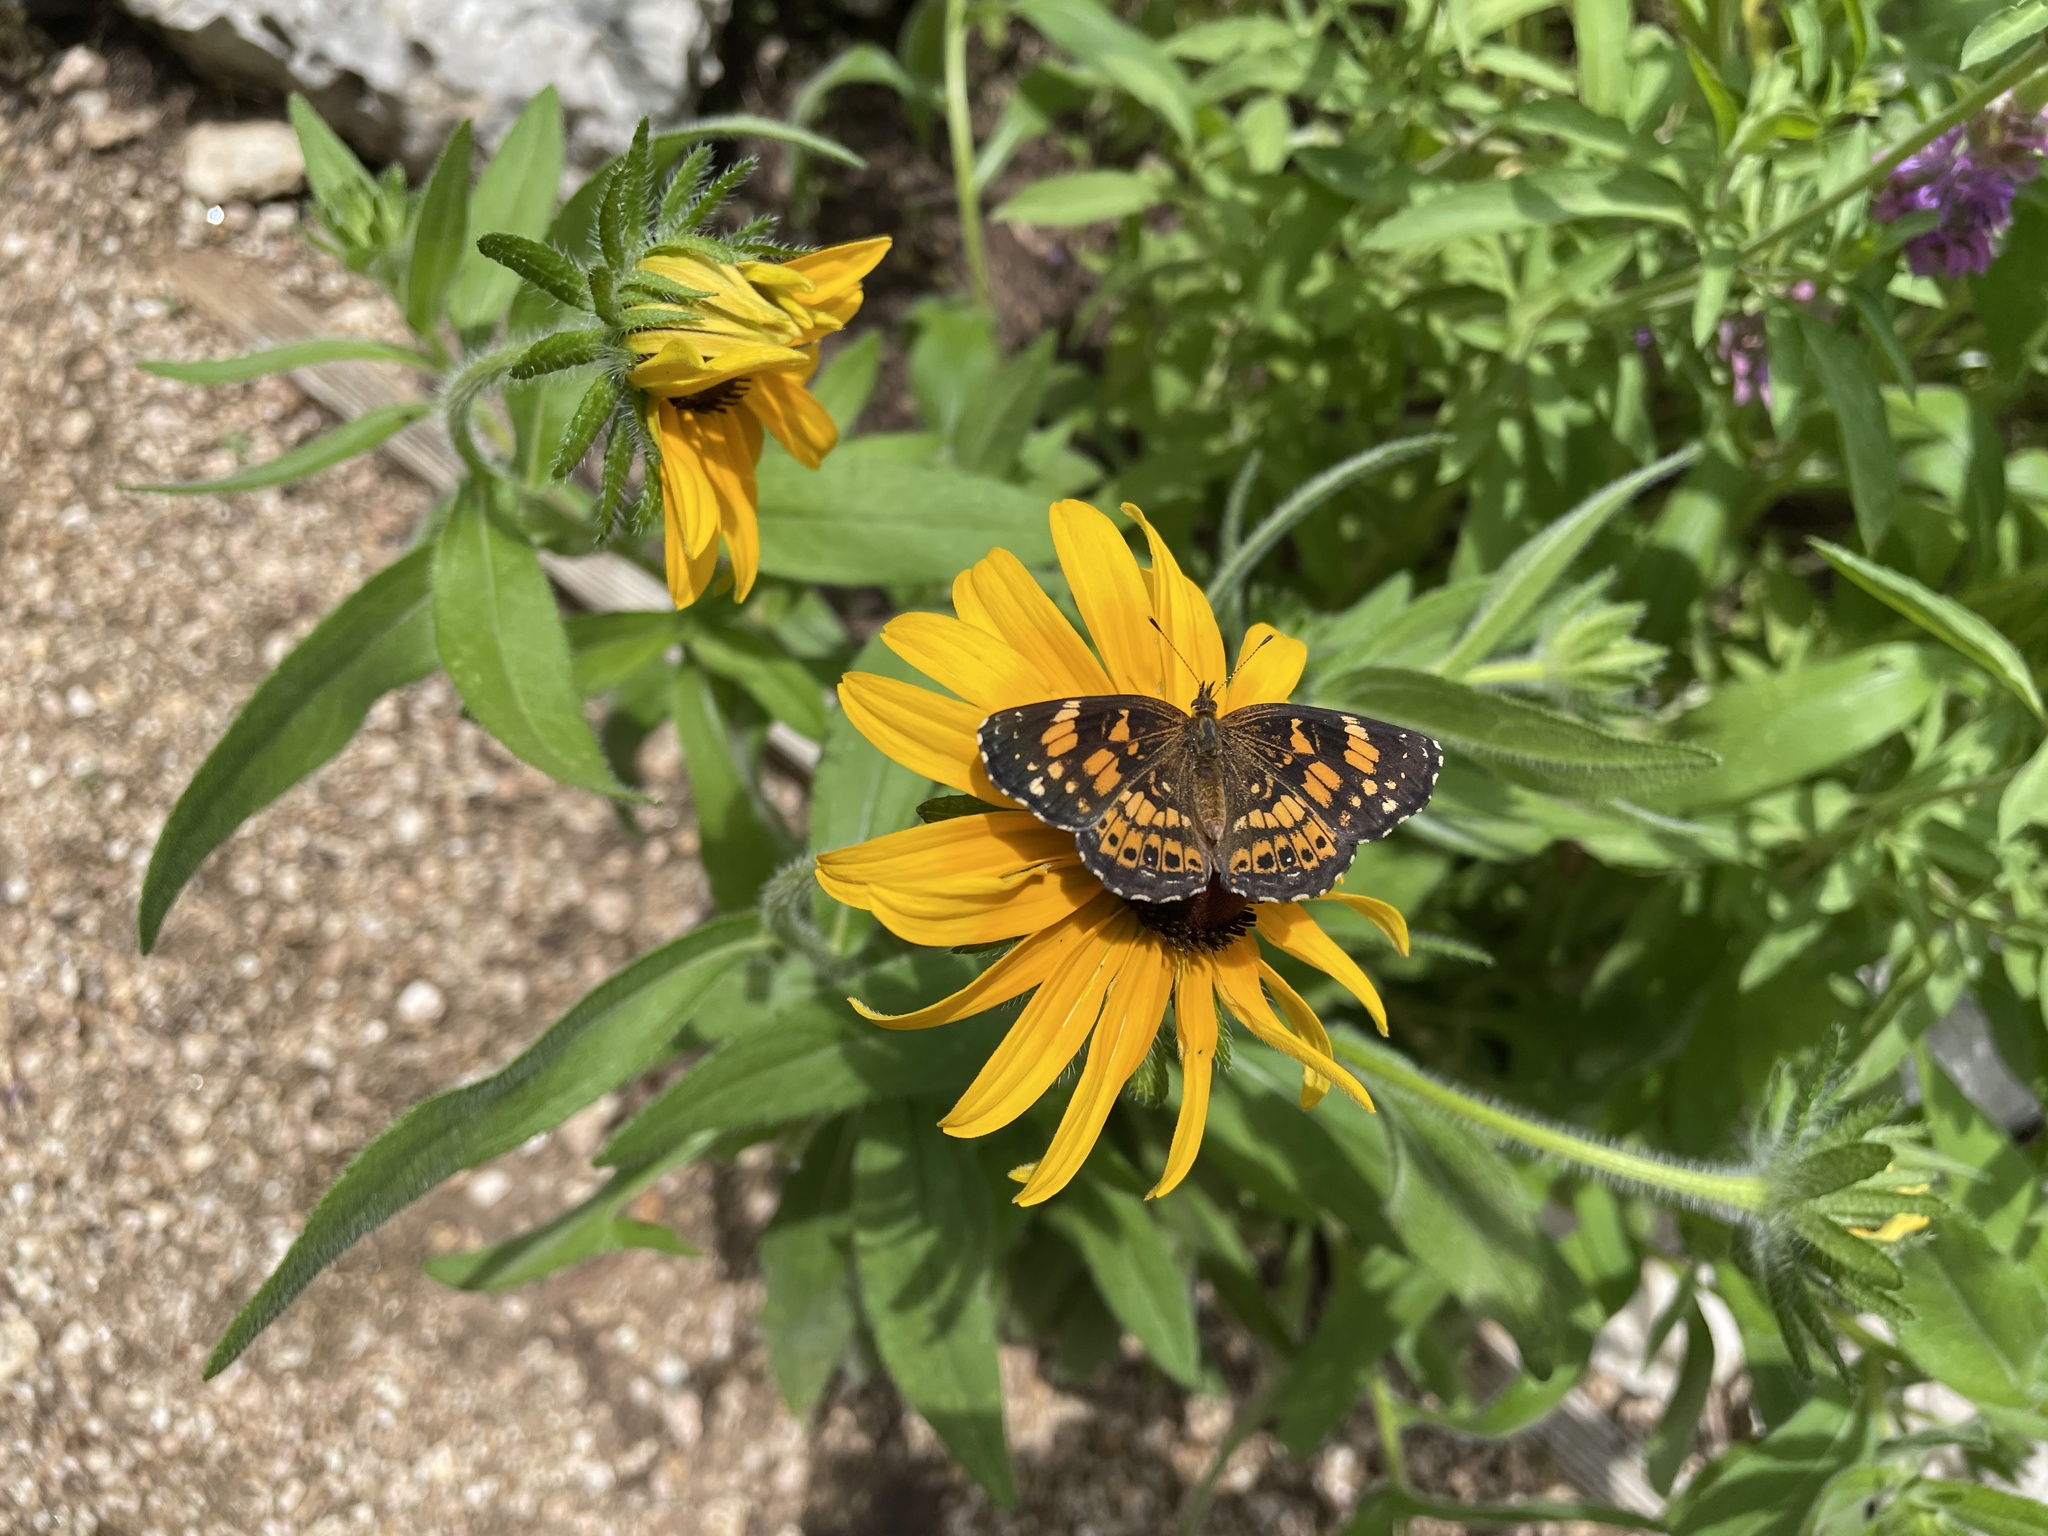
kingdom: Animalia
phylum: Arthropoda
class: Insecta
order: Lepidoptera
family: Nymphalidae
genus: Chlosyne
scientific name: Chlosyne nycteis
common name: Silvery checkerspot
